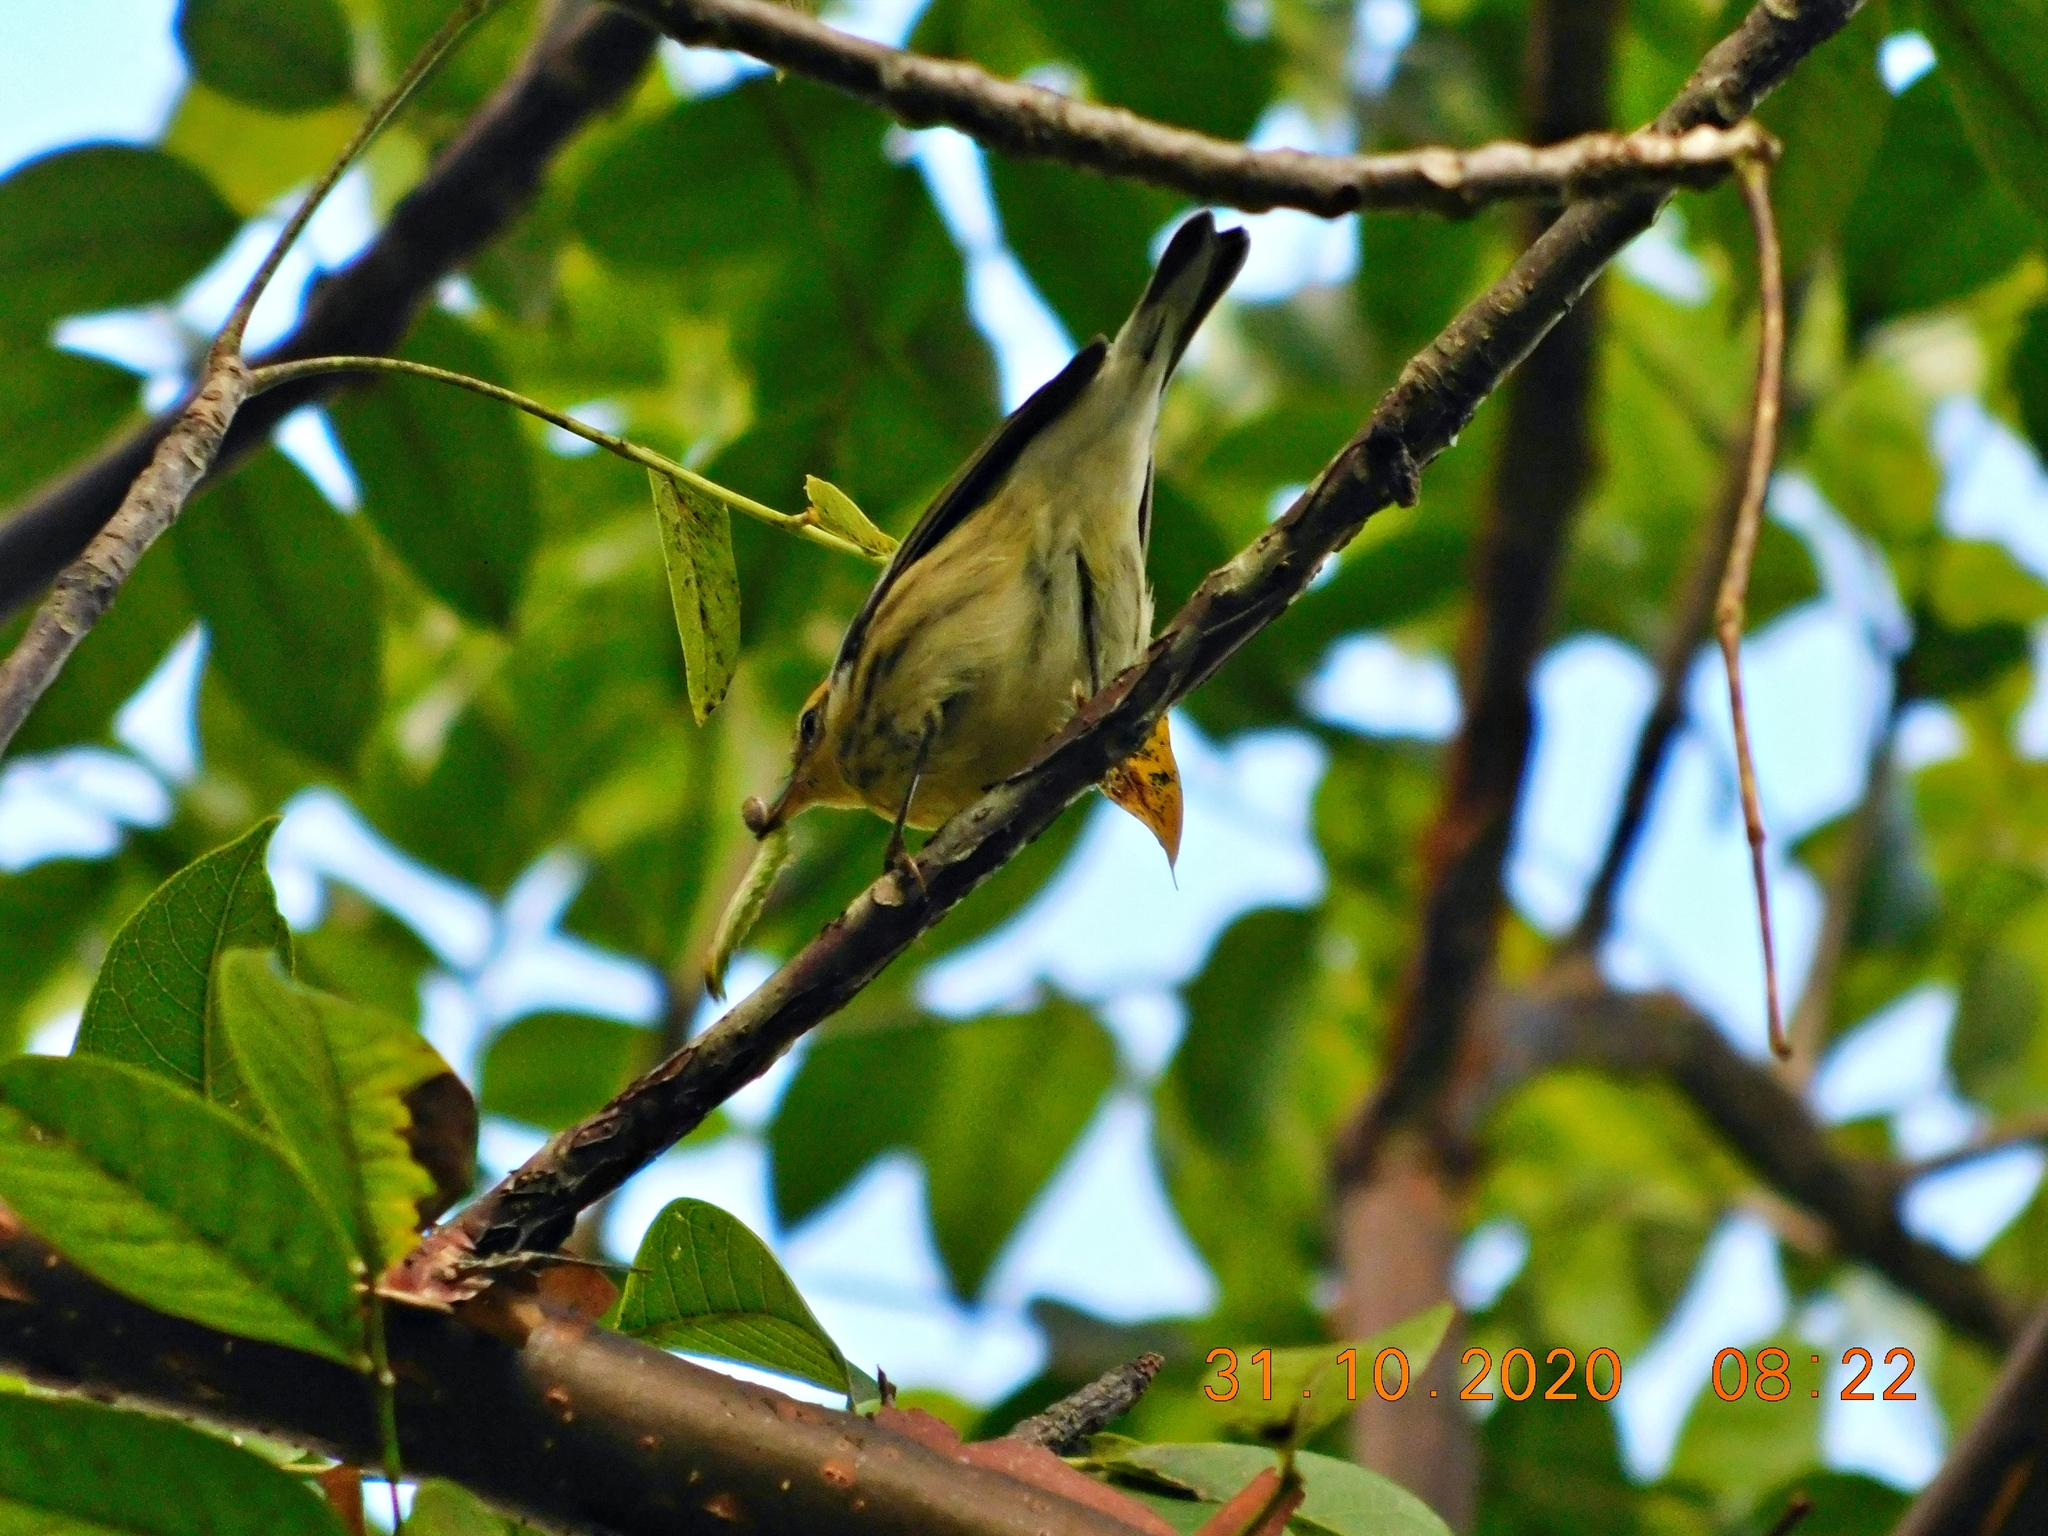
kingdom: Animalia
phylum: Chordata
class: Aves
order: Passeriformes
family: Parulidae
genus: Setophaga
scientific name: Setophaga fusca
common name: Blackburnian warbler
